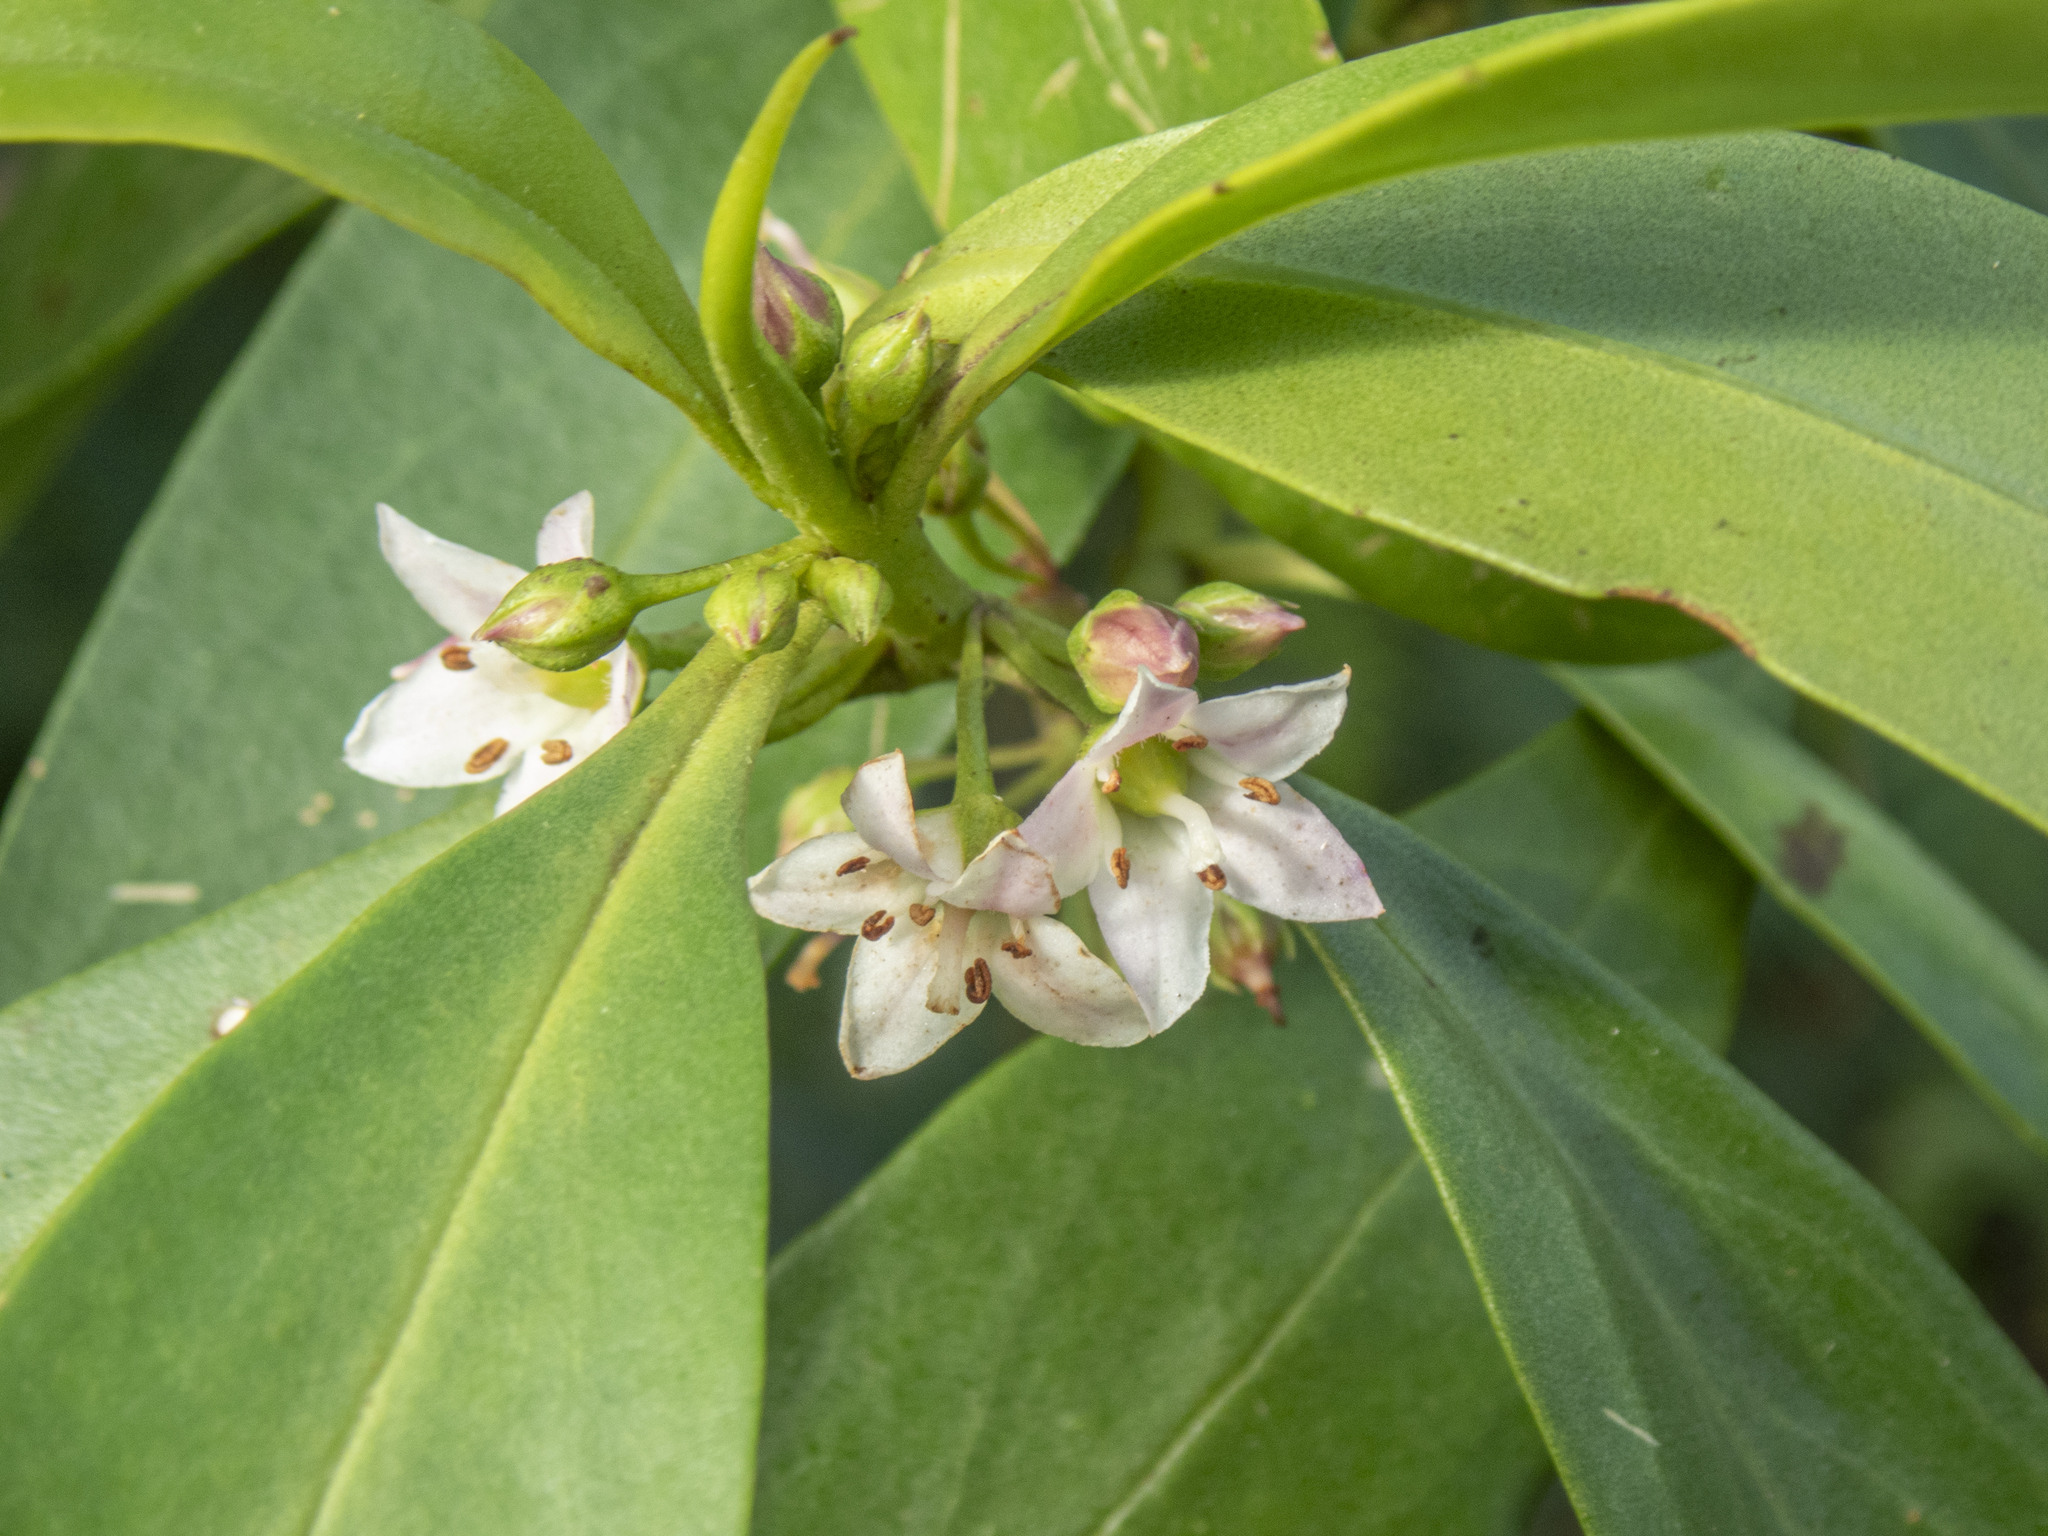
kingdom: Plantae
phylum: Tracheophyta
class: Magnoliopsida
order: Lamiales
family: Scrophulariaceae
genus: Myoporum
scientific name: Myoporum sandwicense
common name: Bastard-sandalwood
